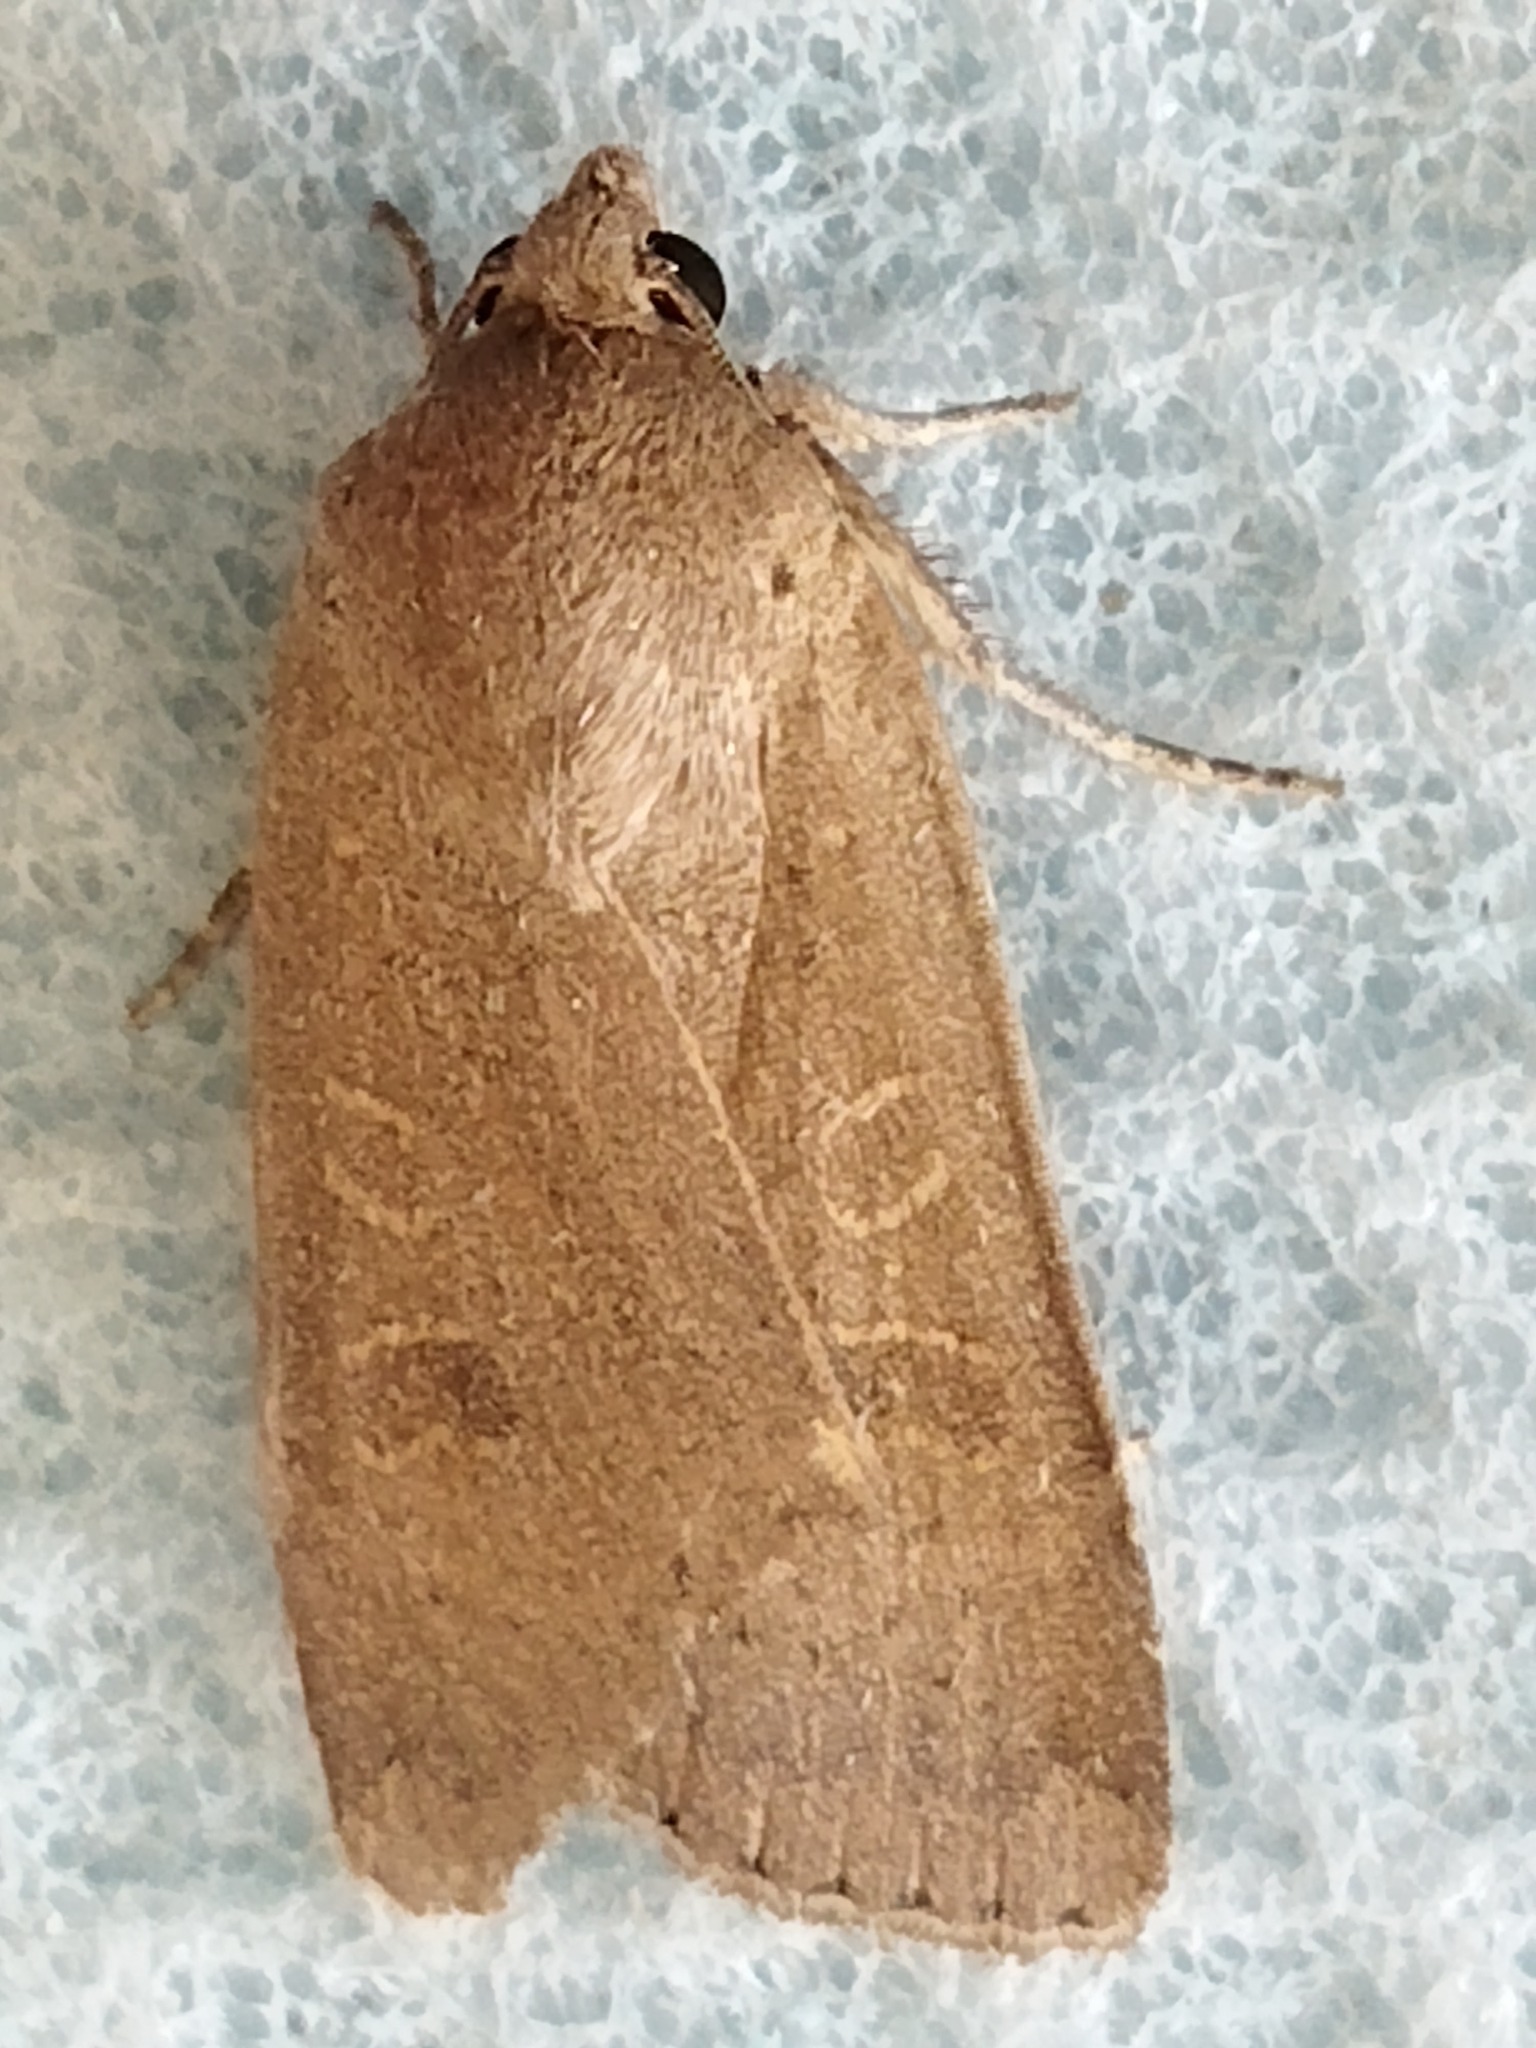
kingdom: Animalia
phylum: Arthropoda
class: Insecta
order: Lepidoptera
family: Noctuidae
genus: Noctua
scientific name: Noctua comes
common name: Lesser yellow underwing
